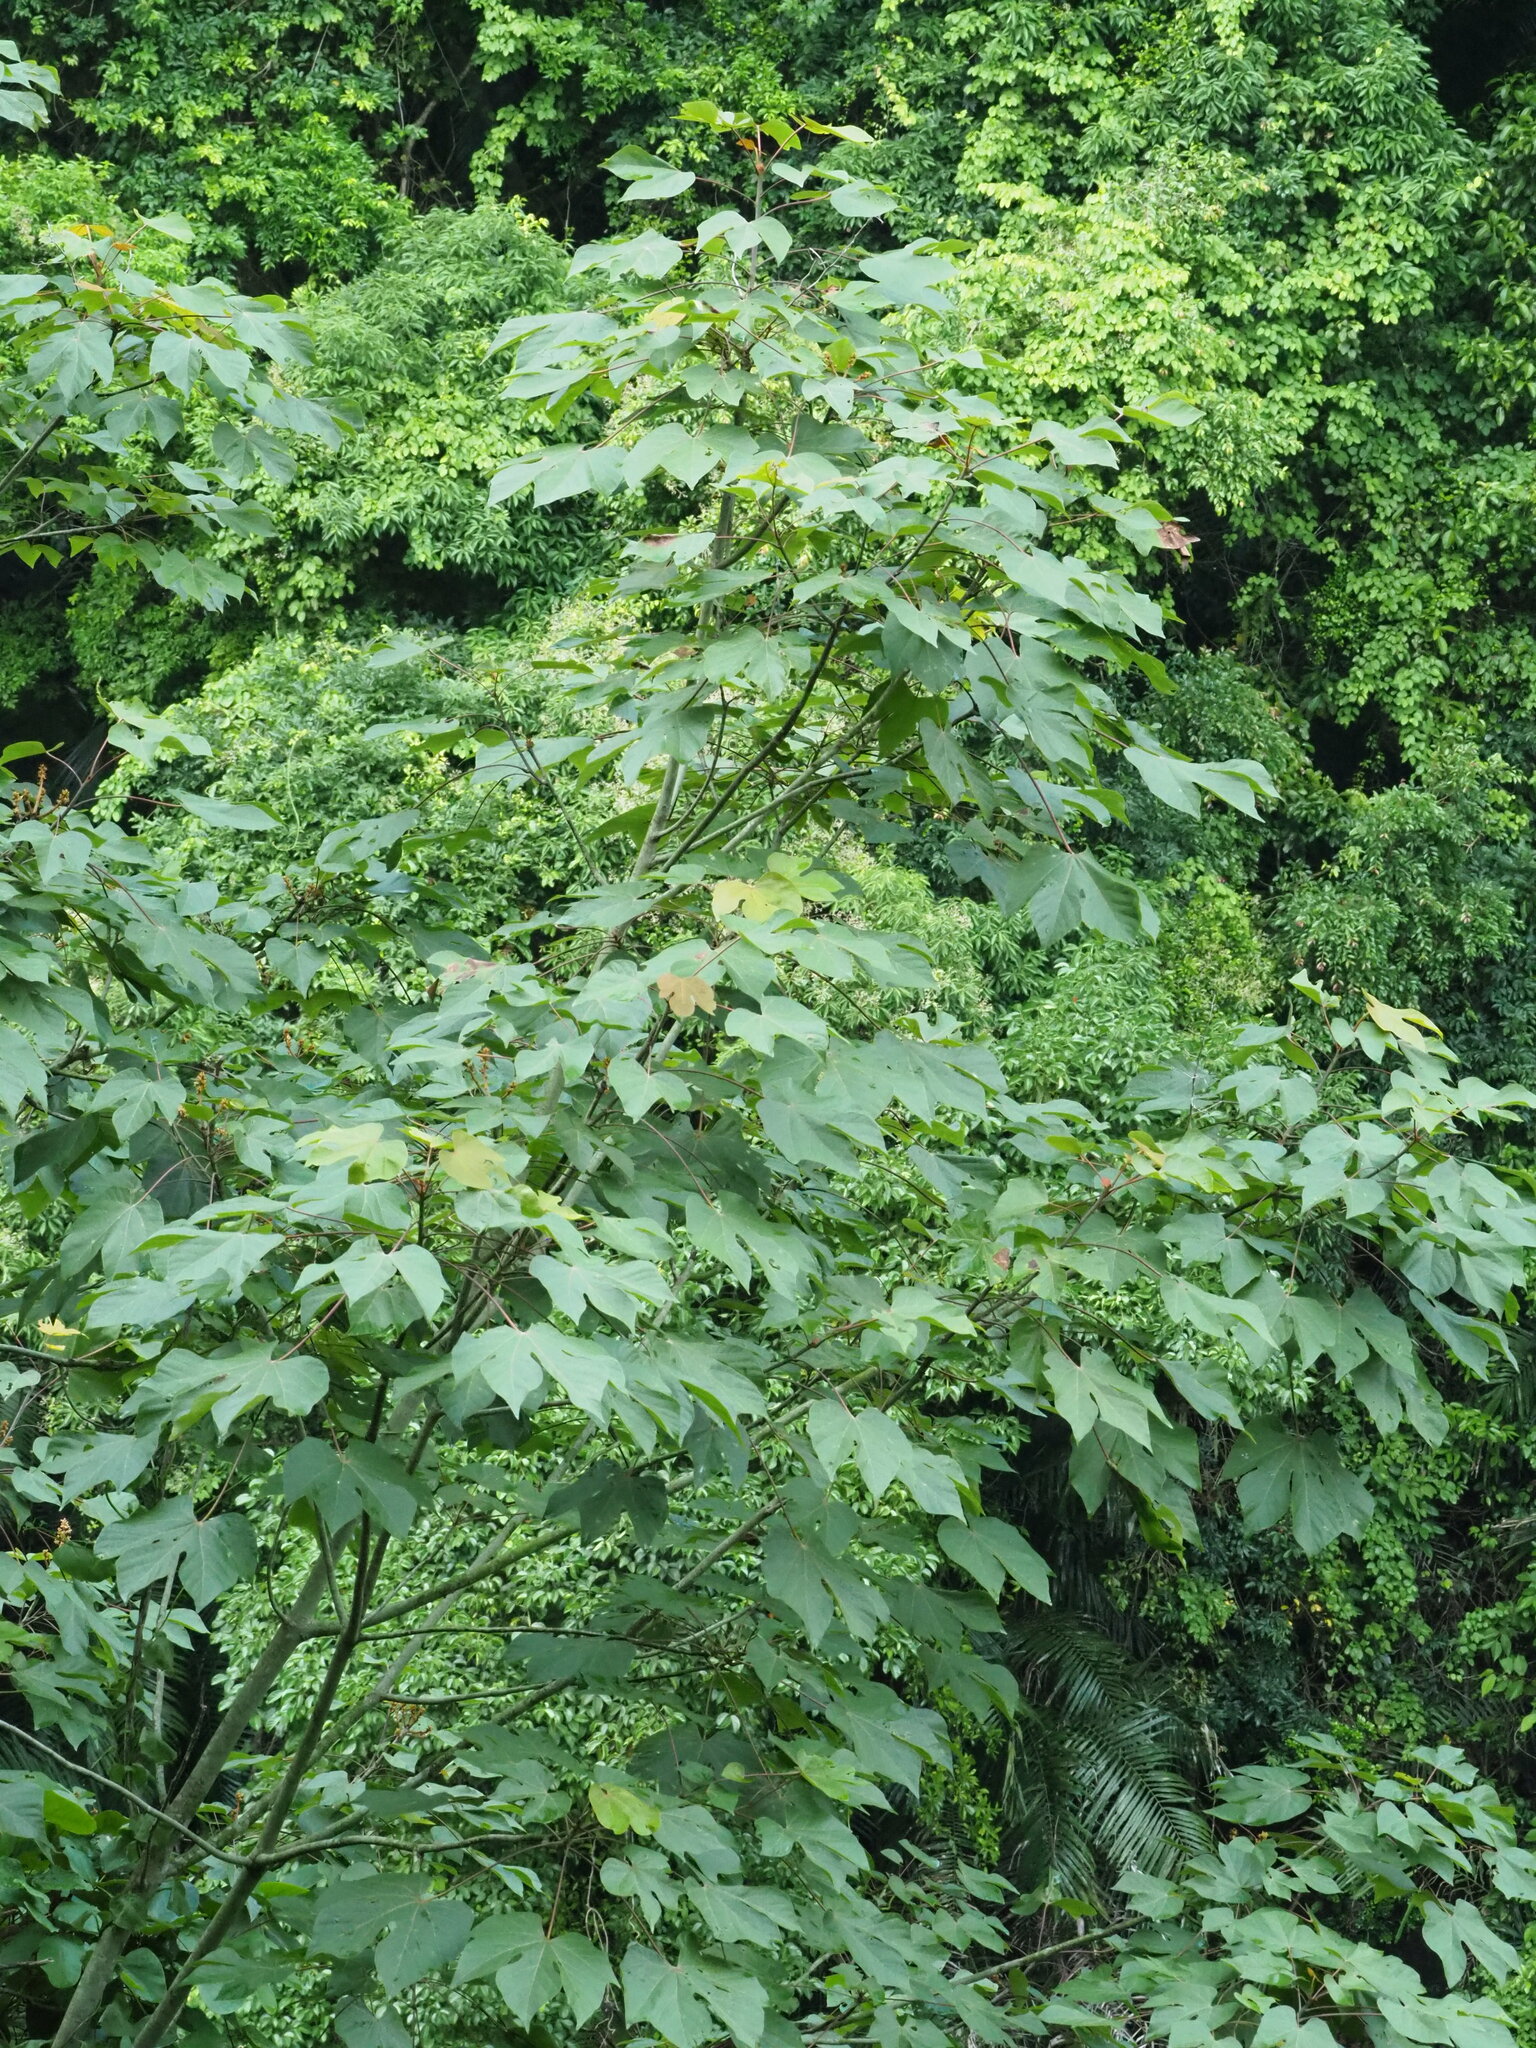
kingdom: Plantae
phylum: Tracheophyta
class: Magnoliopsida
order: Malvales
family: Malvaceae
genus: Firmiana
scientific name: Firmiana simplex
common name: Chinese parasoltree
